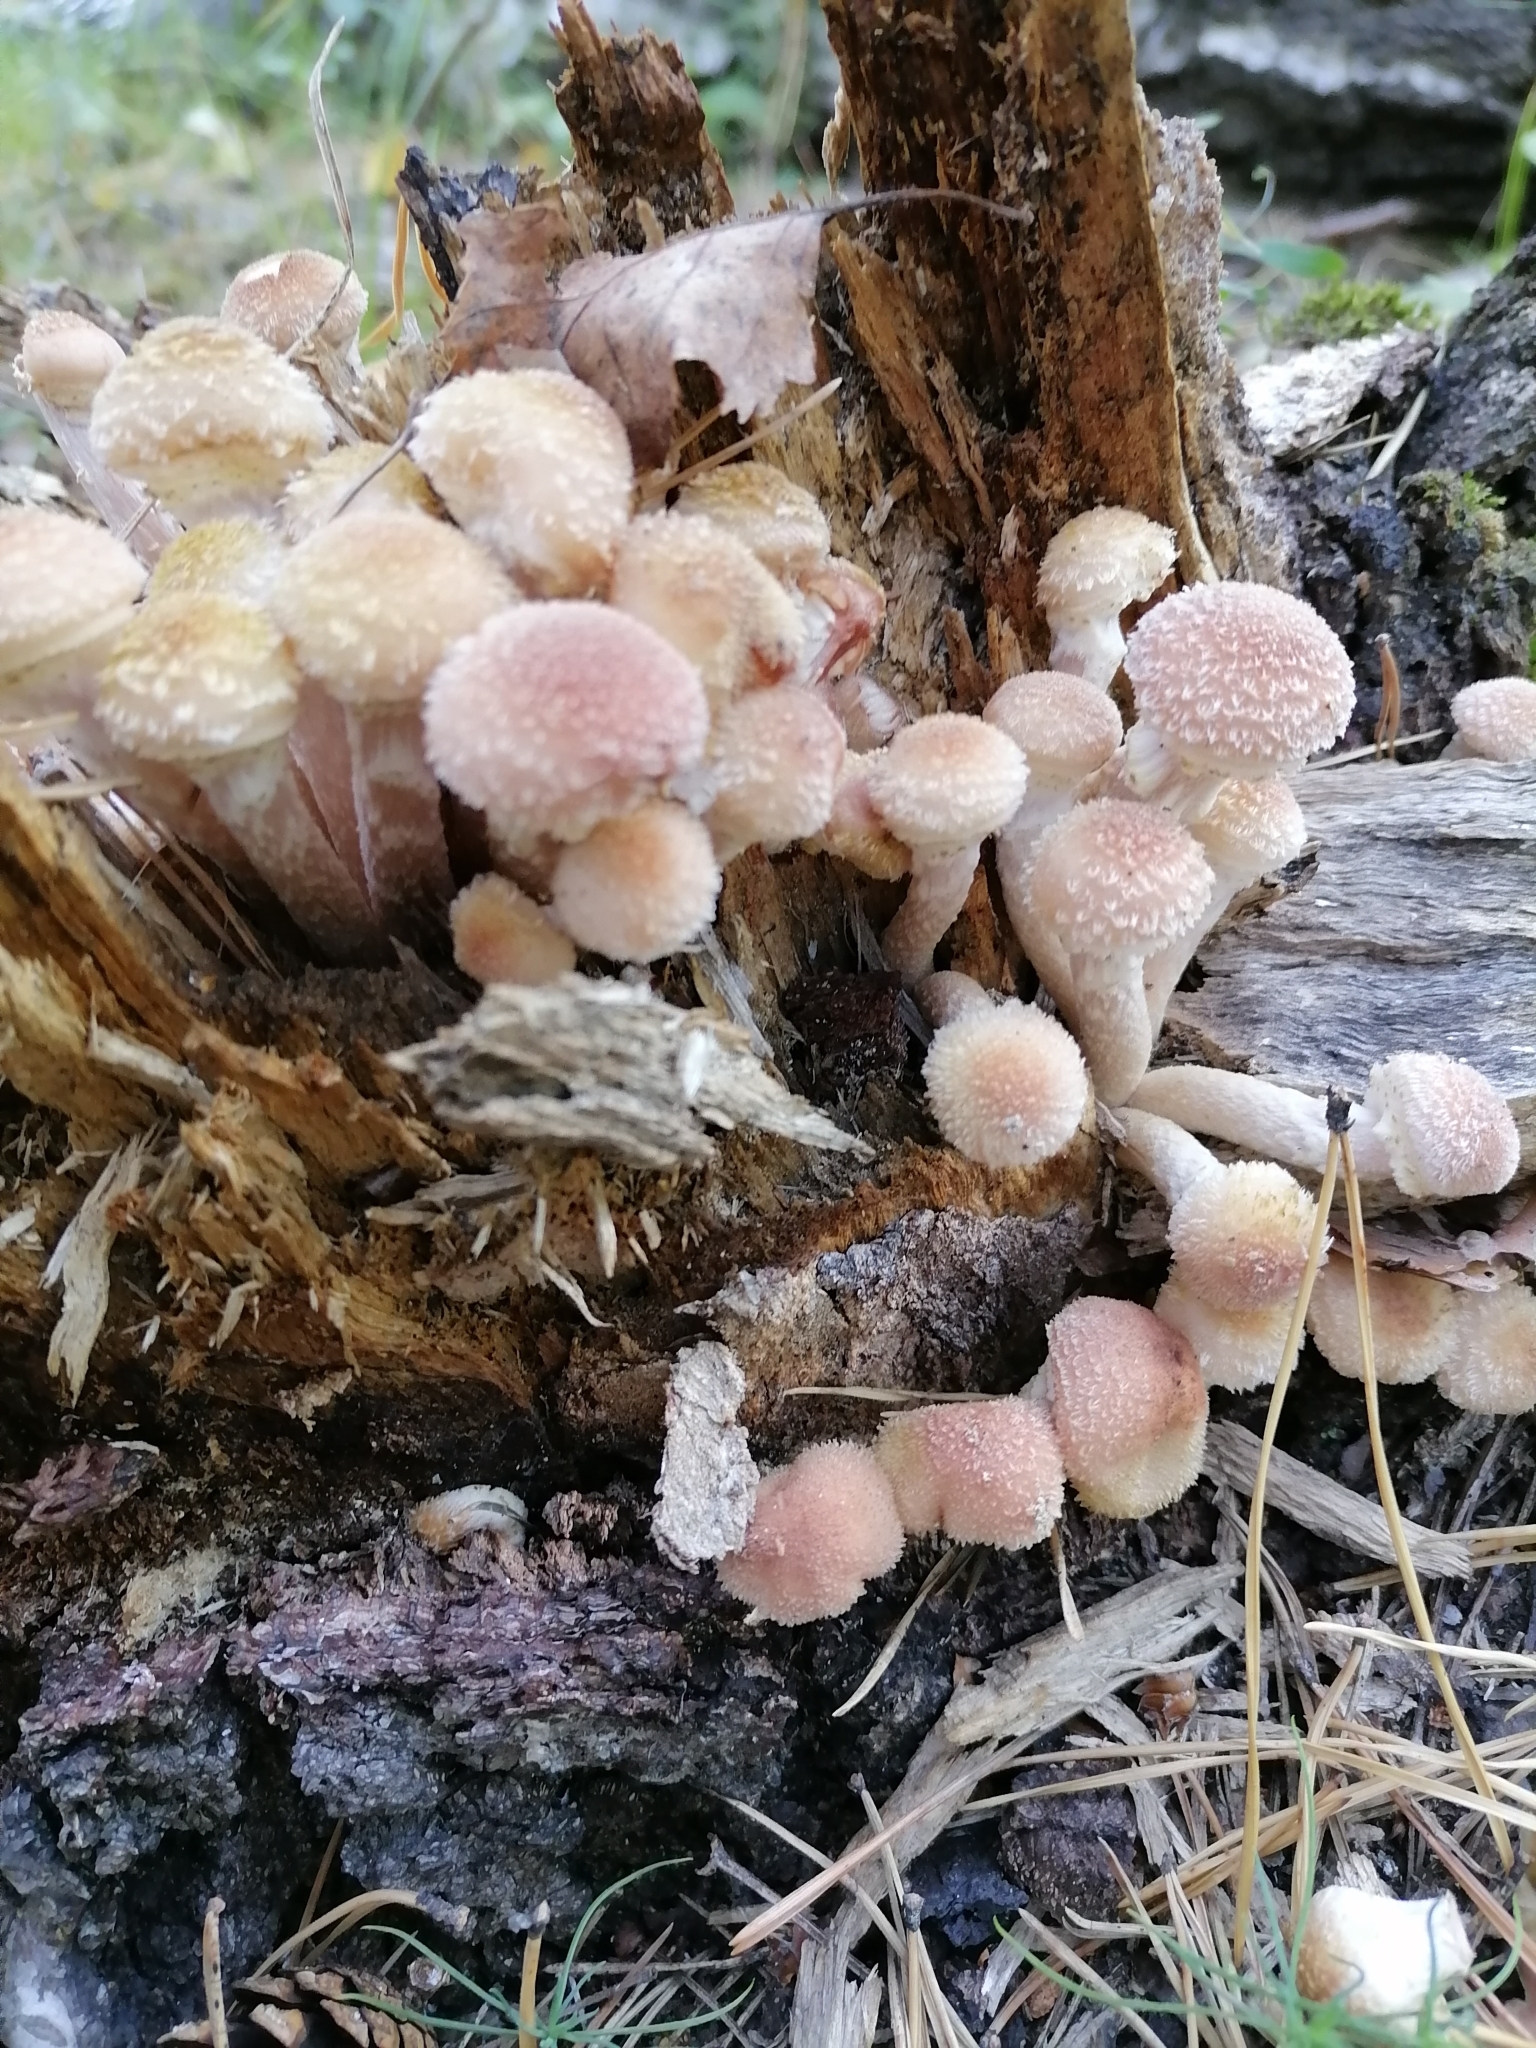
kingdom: Fungi
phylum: Basidiomycota
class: Agaricomycetes
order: Agaricales
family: Physalacriaceae
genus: Armillaria
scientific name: Armillaria borealis
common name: Northern honey fungus
